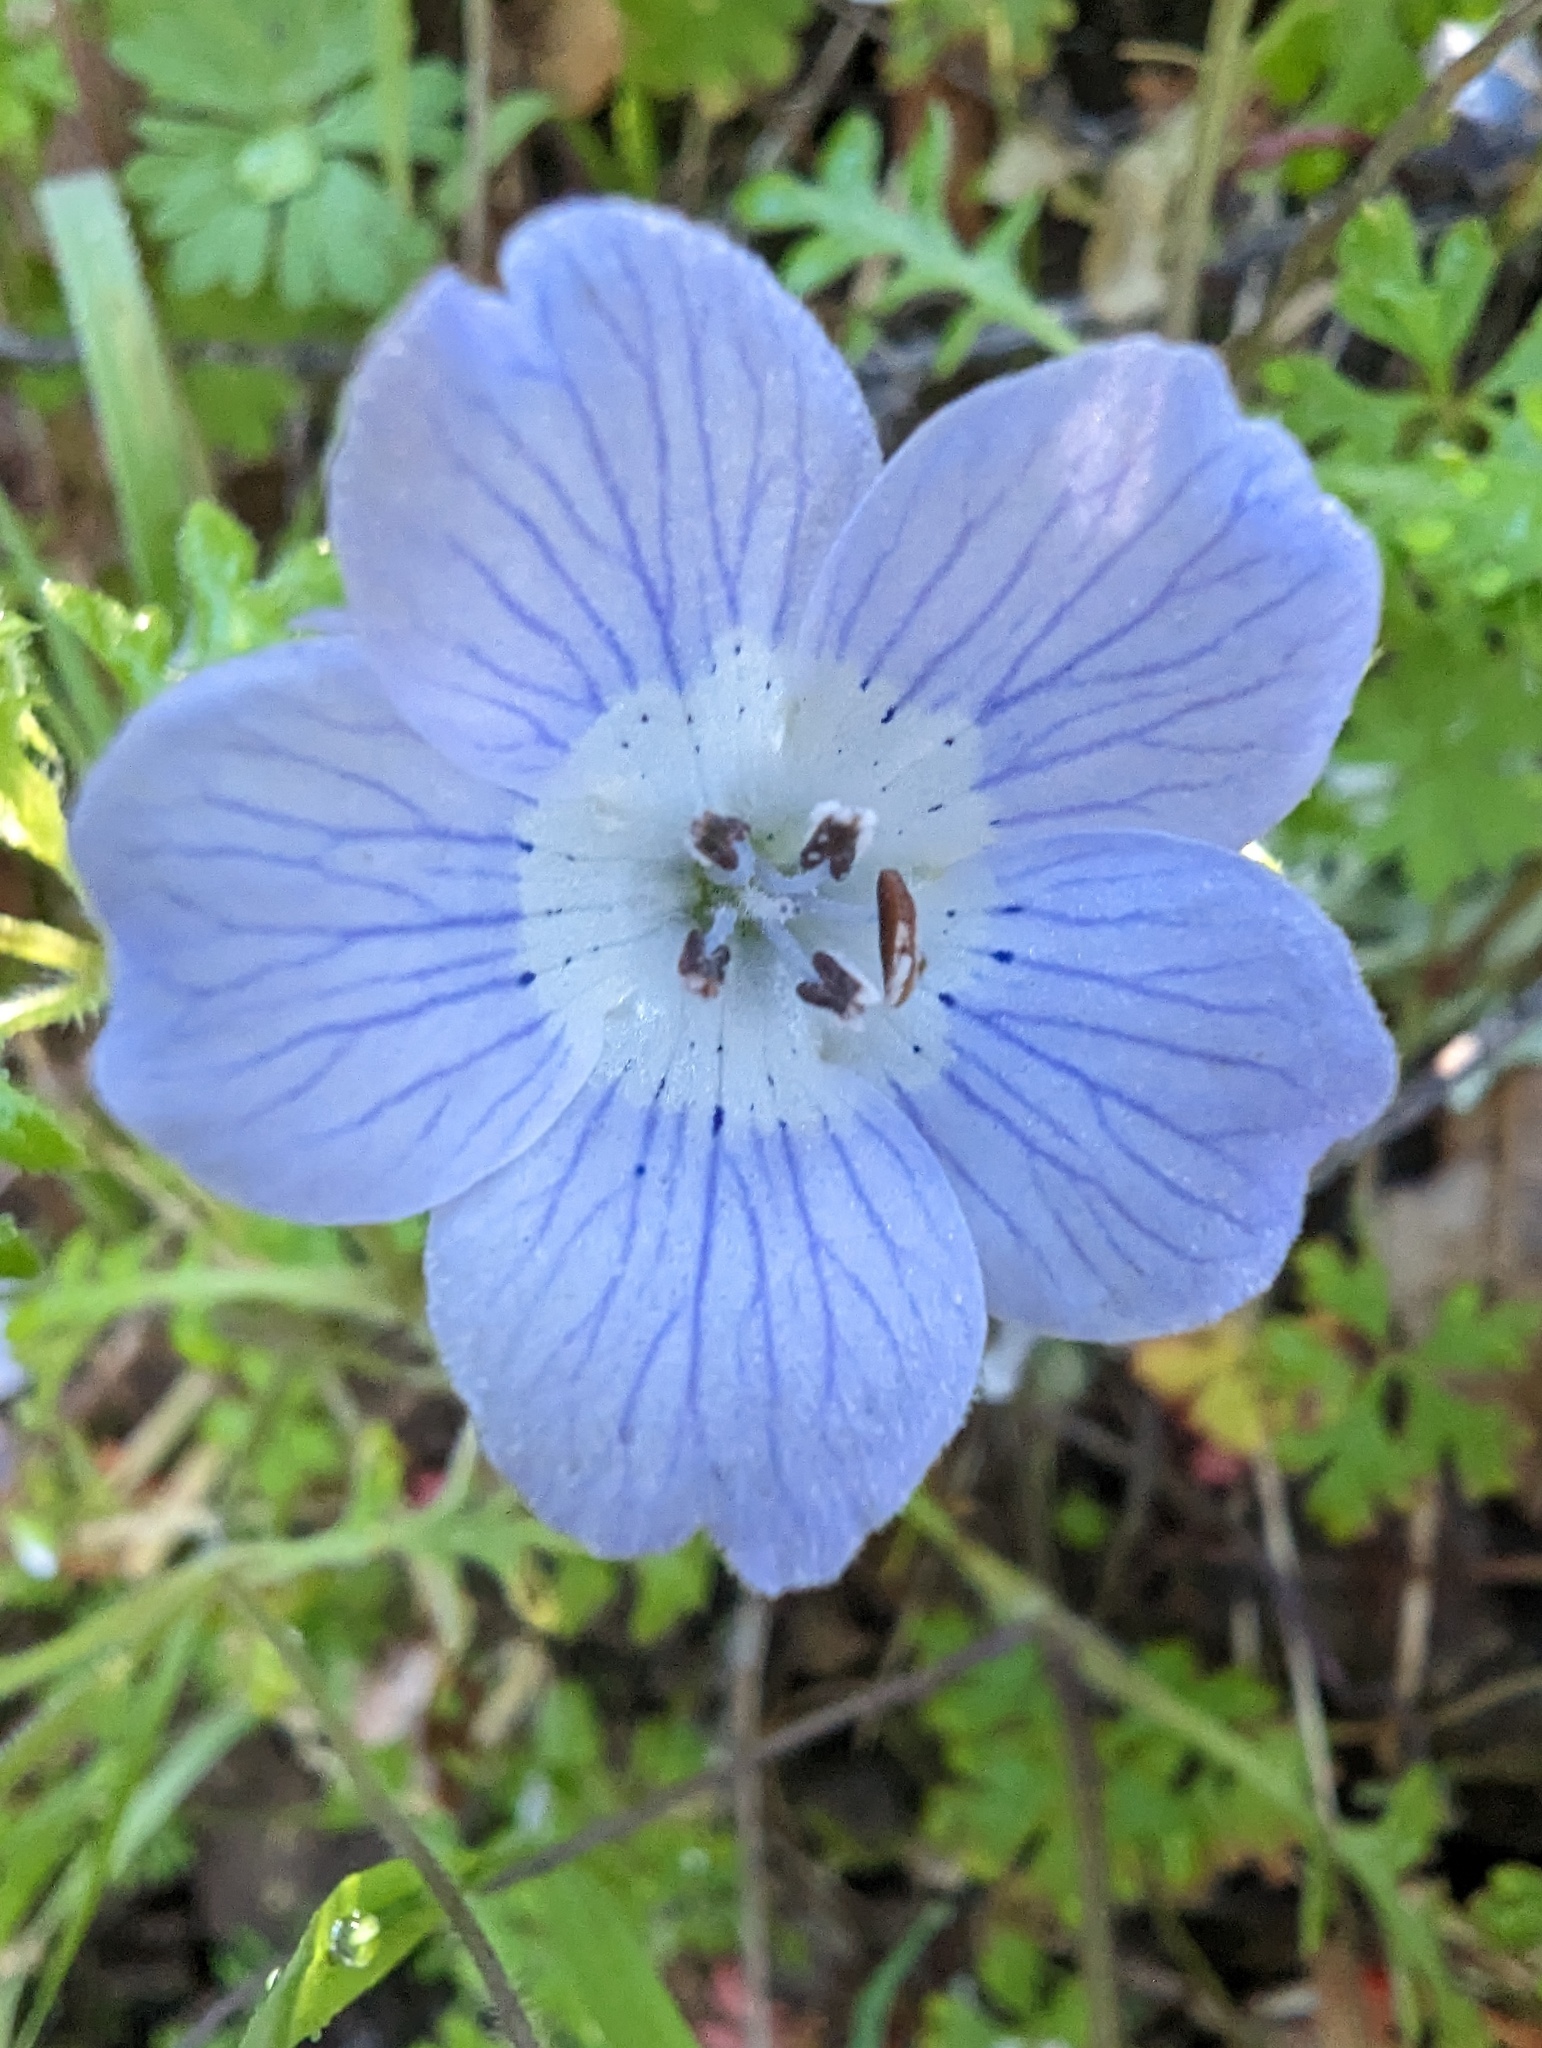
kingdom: Plantae
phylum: Tracheophyta
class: Magnoliopsida
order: Boraginales
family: Hydrophyllaceae
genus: Nemophila
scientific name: Nemophila menziesii
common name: Baby's-blue-eyes
